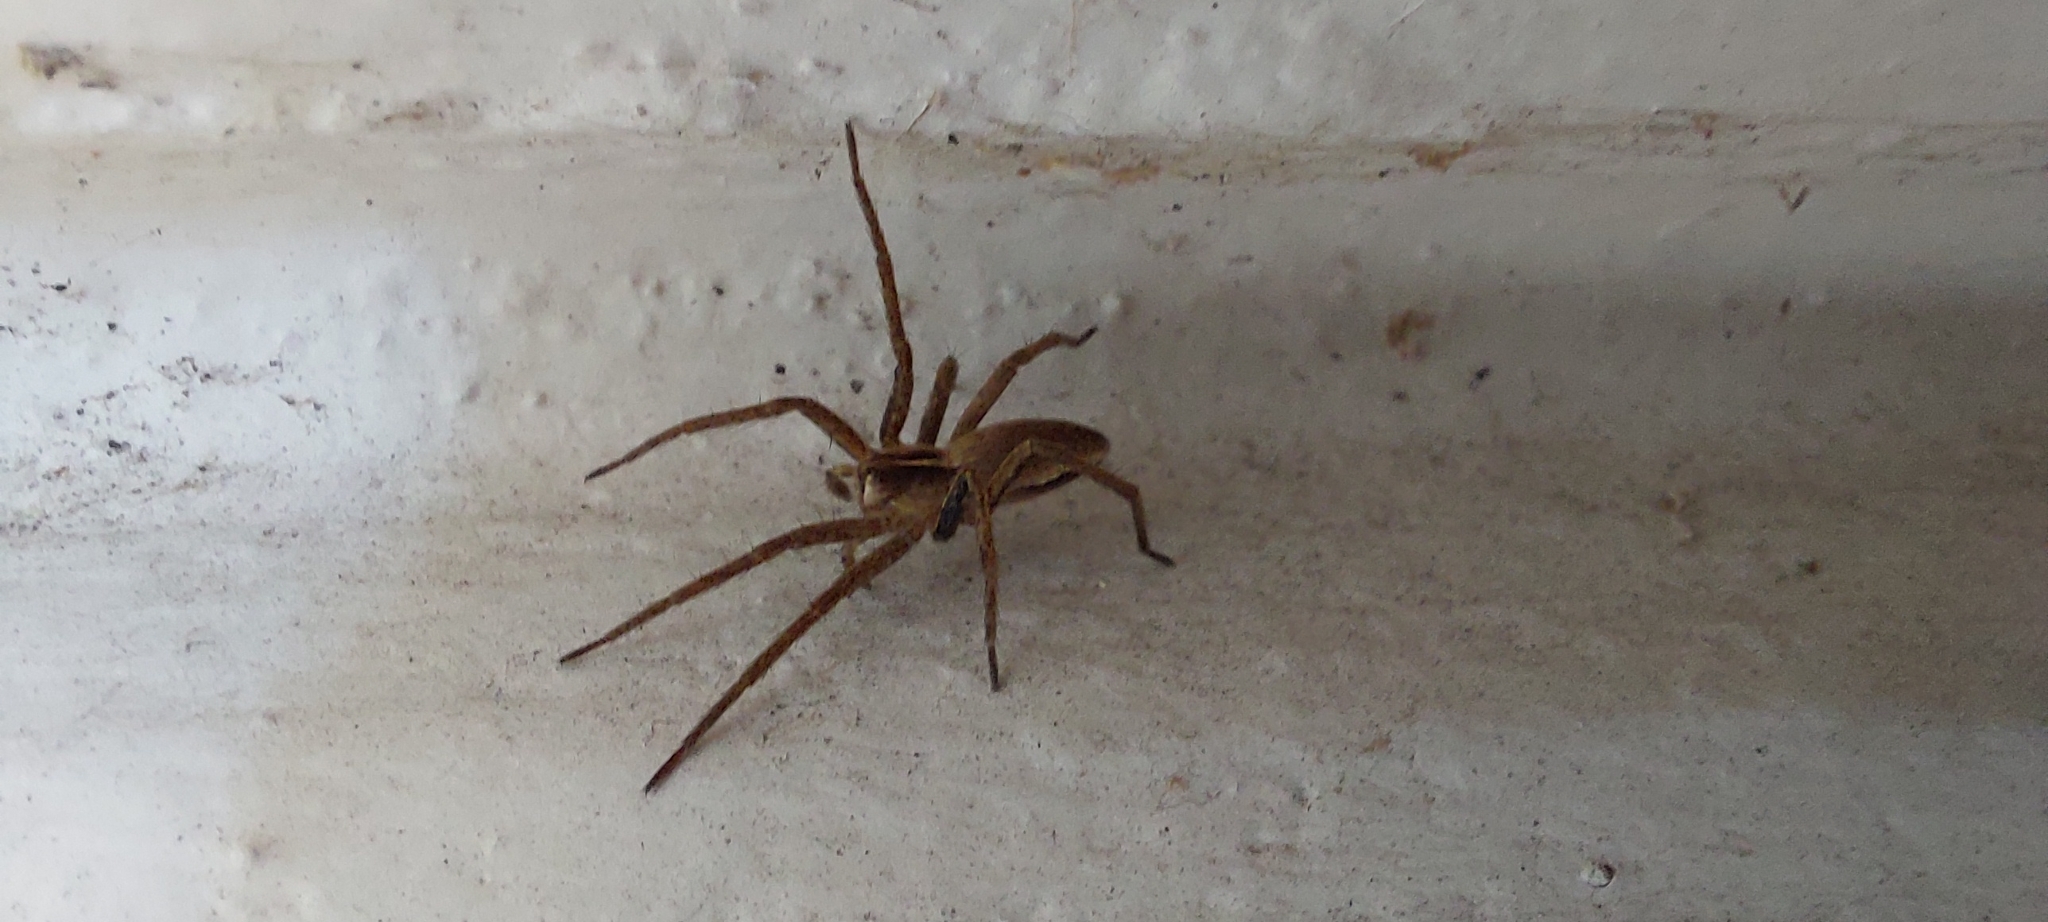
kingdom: Animalia
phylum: Arthropoda
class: Arachnida
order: Araneae
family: Pisauridae
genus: Pisaura
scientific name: Pisaura mirabilis
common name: Tent spider
